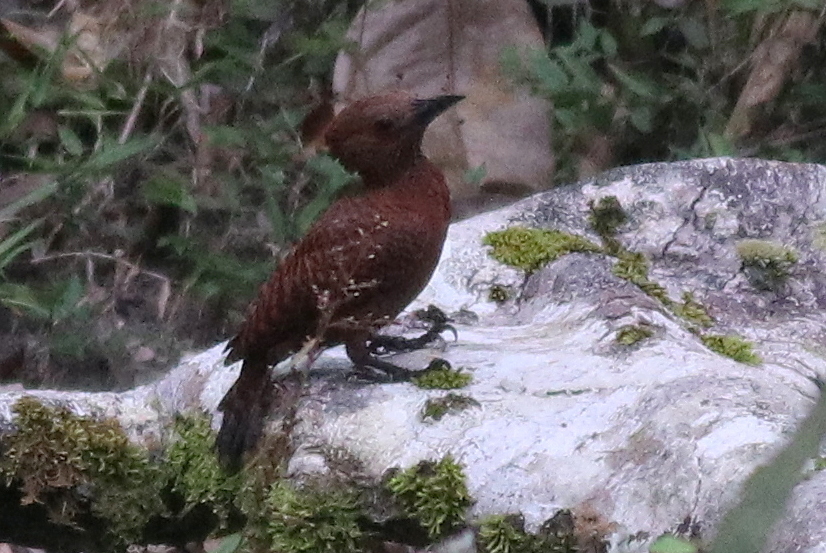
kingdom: Animalia
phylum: Chordata
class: Aves
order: Piciformes
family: Picidae
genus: Micropternus
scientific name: Micropternus brachyurus
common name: Rufous woodpecker
